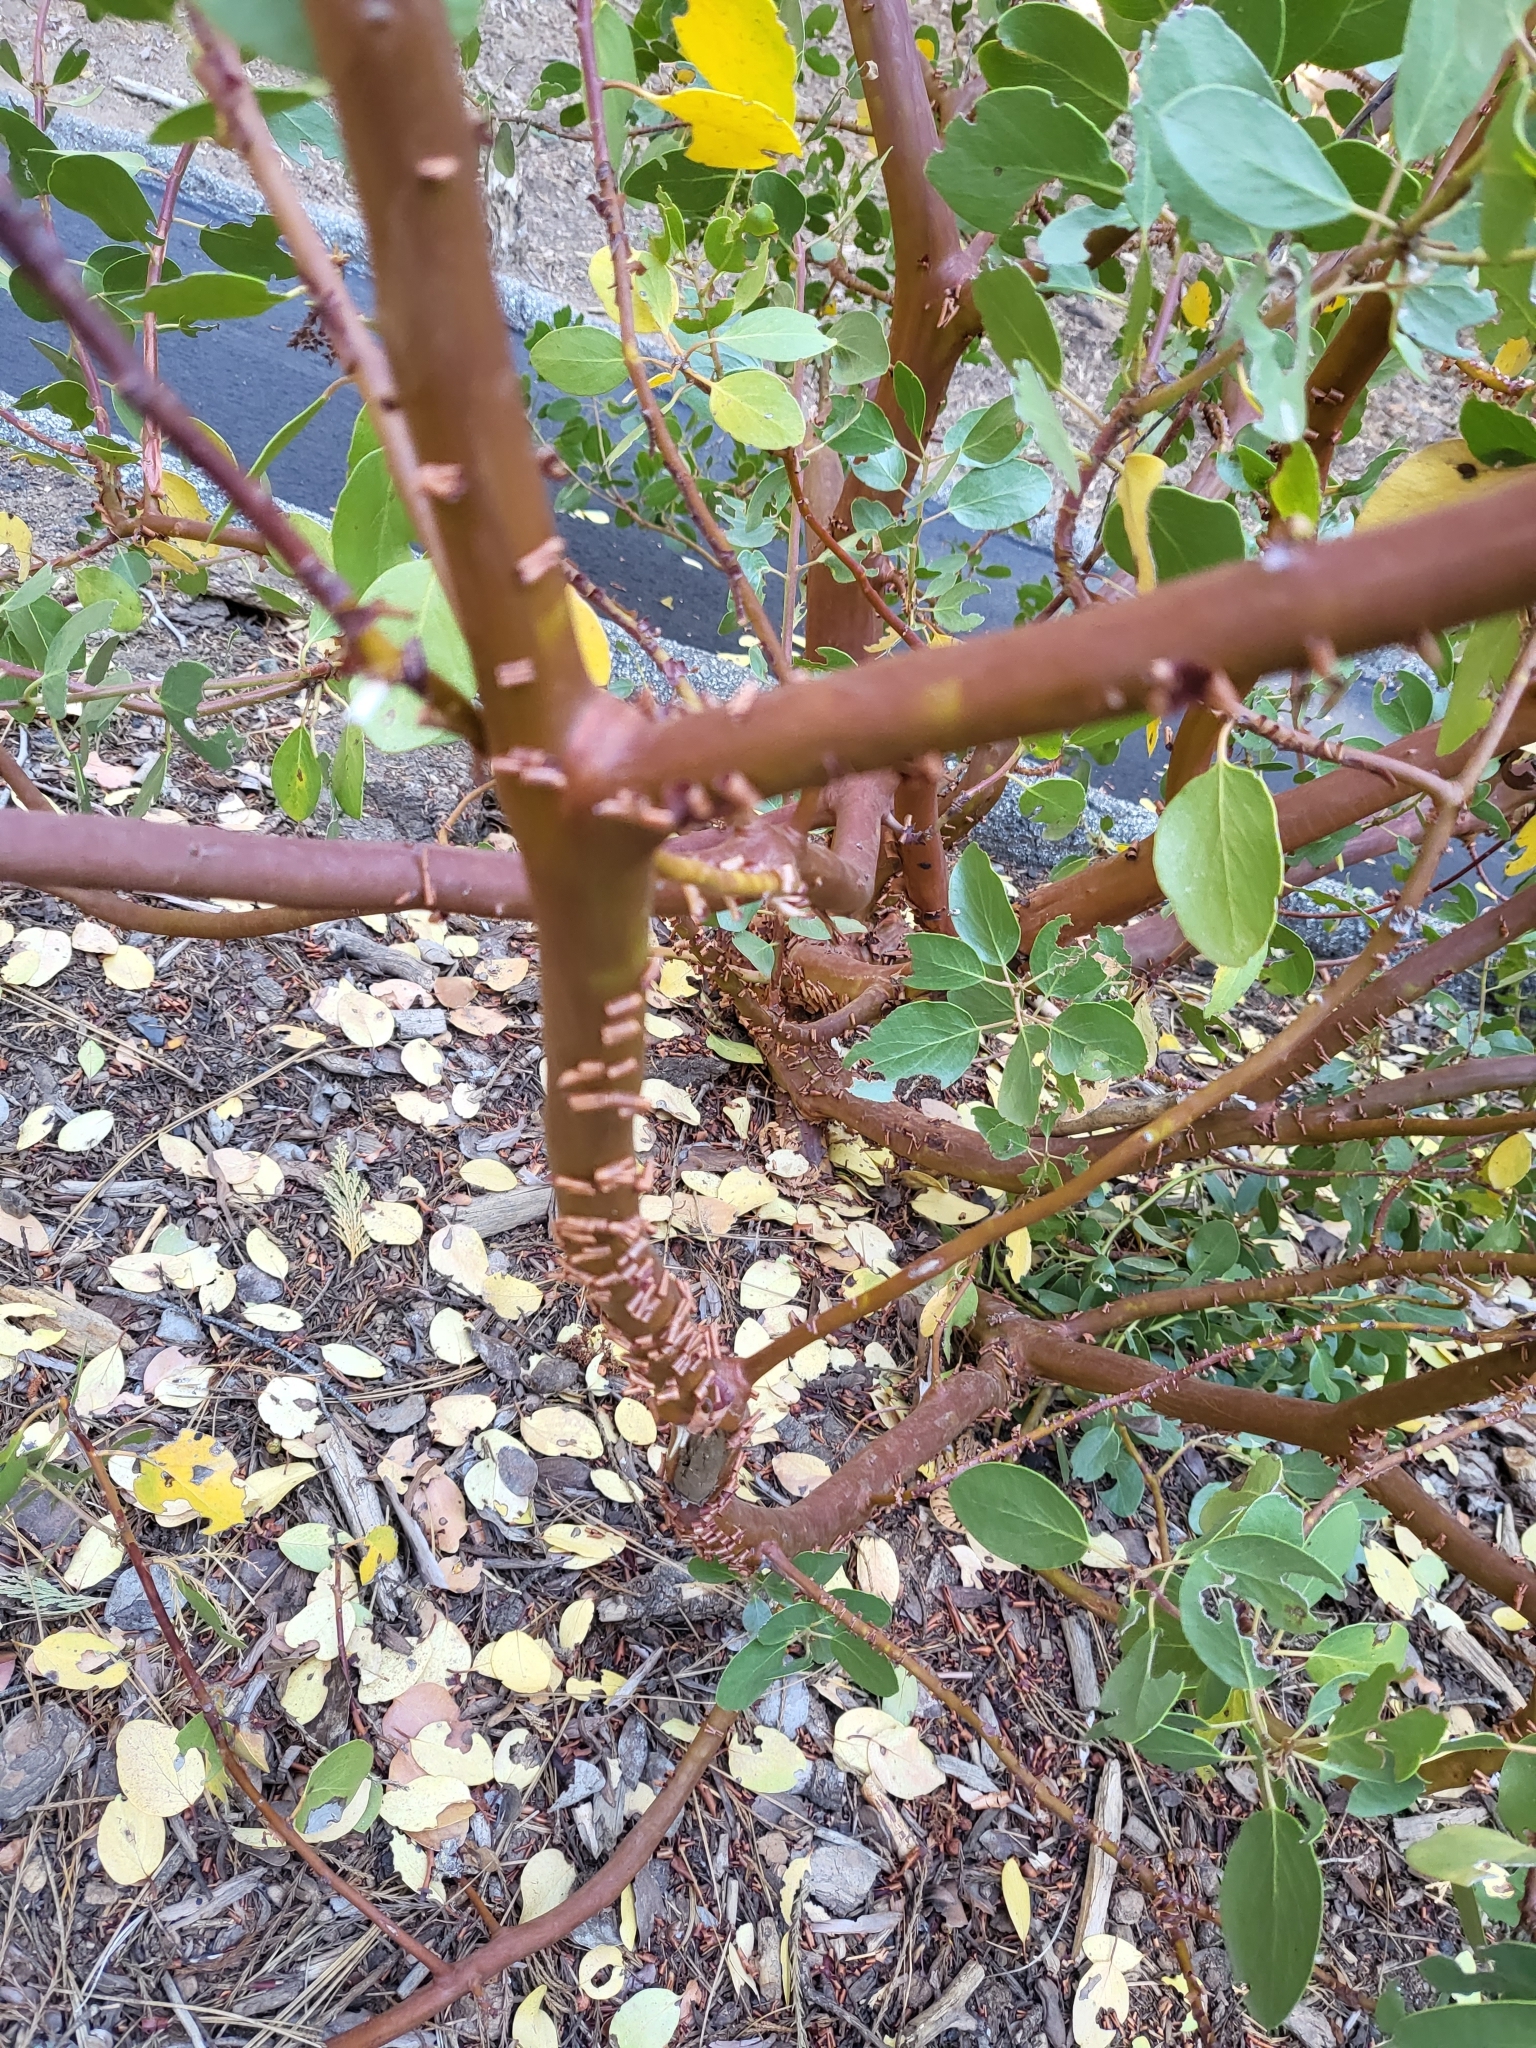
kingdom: Plantae
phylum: Tracheophyta
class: Magnoliopsida
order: Ericales
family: Ericaceae
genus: Arctostaphylos
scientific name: Arctostaphylos patula
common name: Green-leaf manzanita
